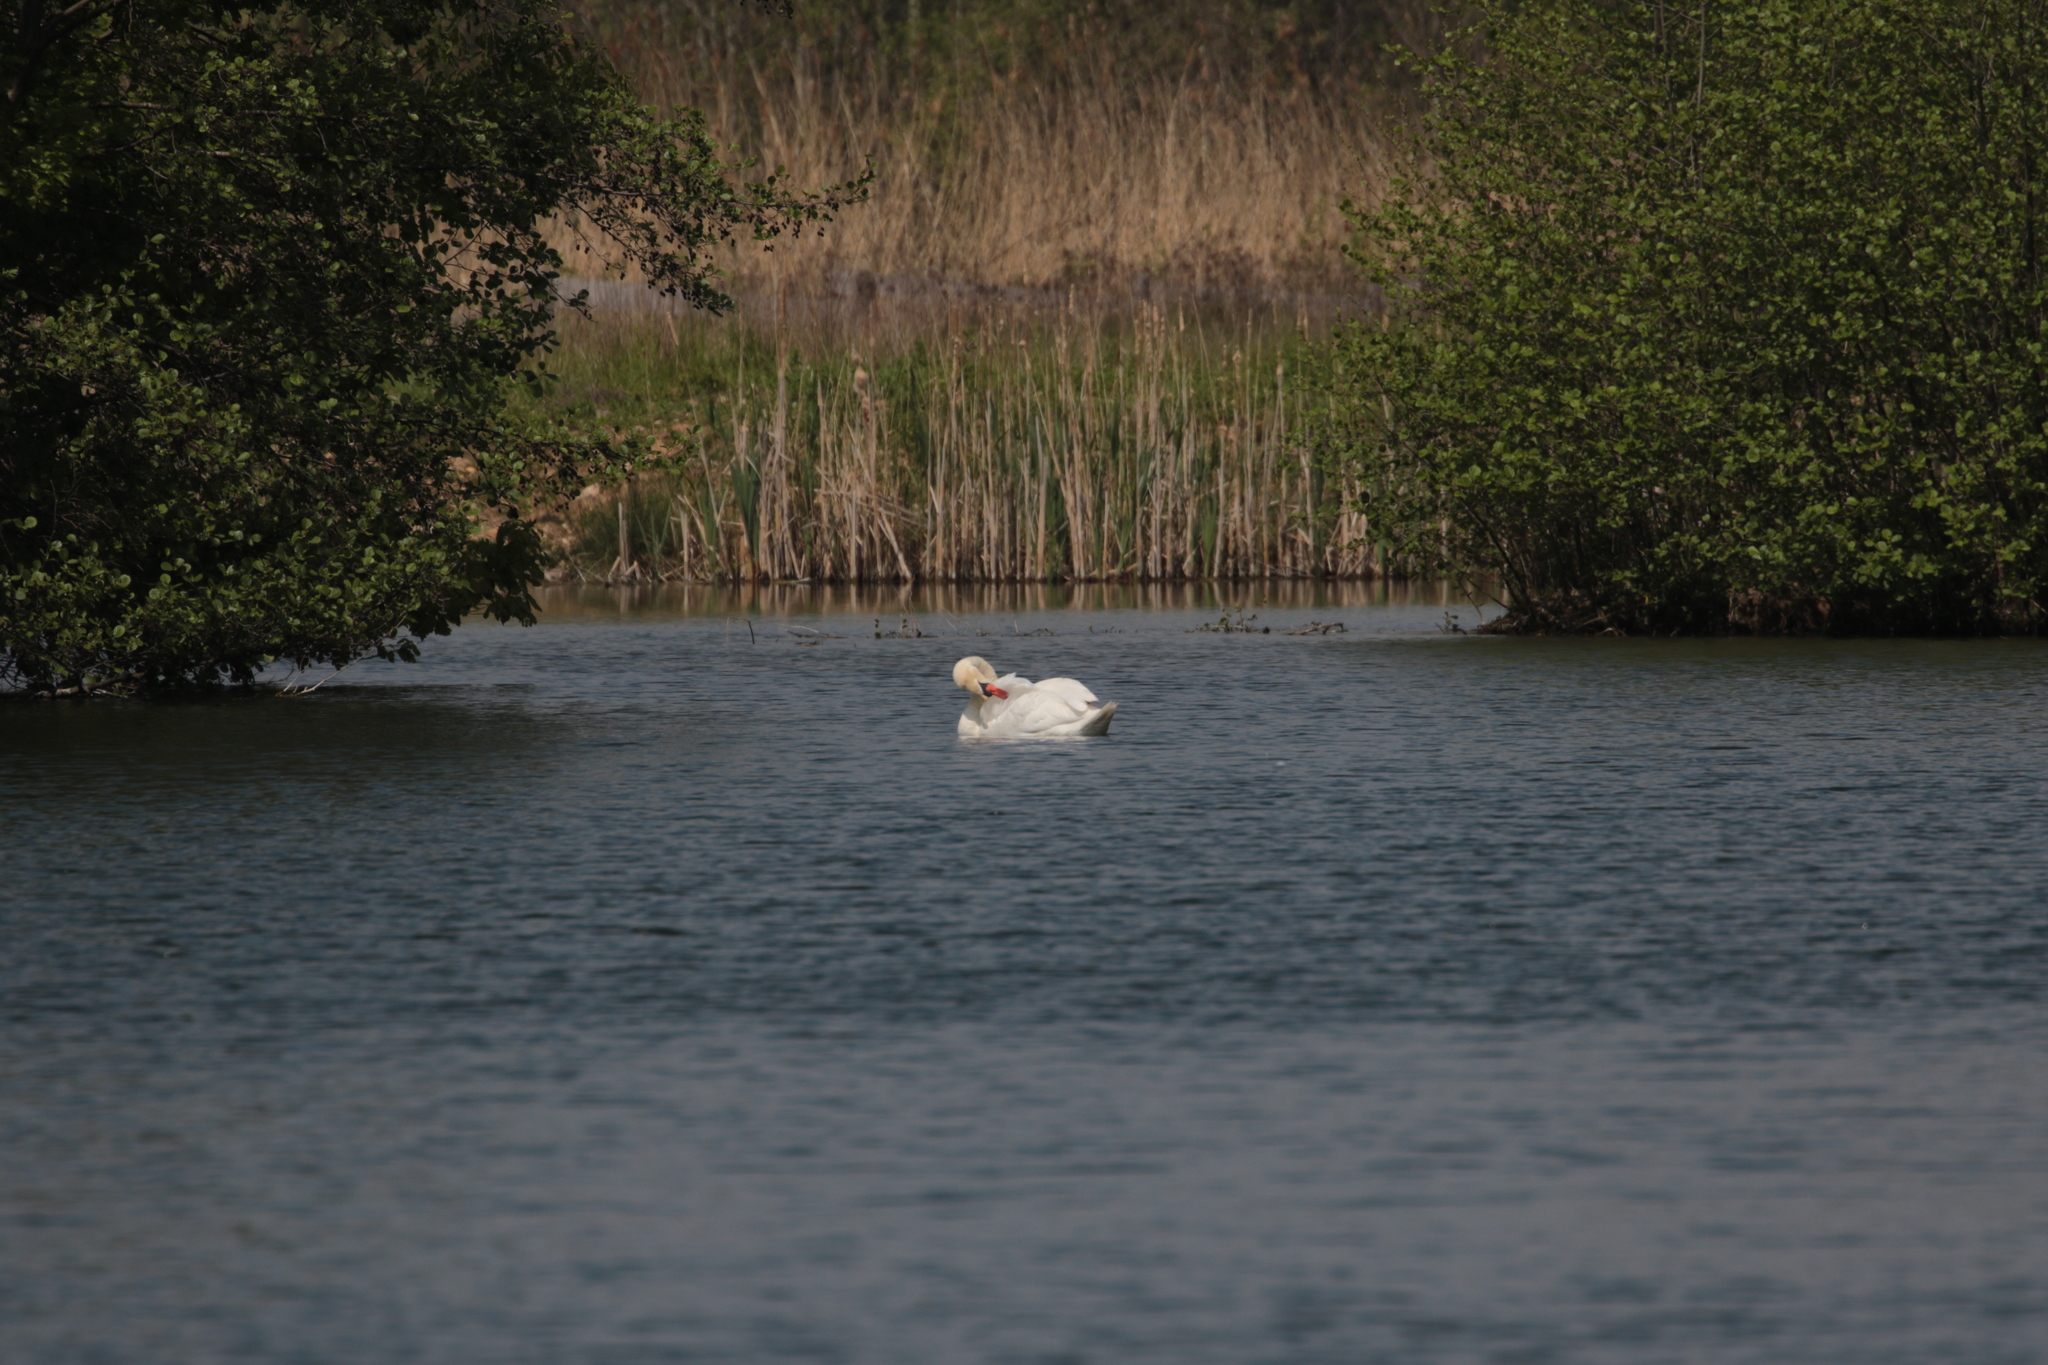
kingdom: Animalia
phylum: Chordata
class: Aves
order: Anseriformes
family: Anatidae
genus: Cygnus
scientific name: Cygnus olor
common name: Mute swan
